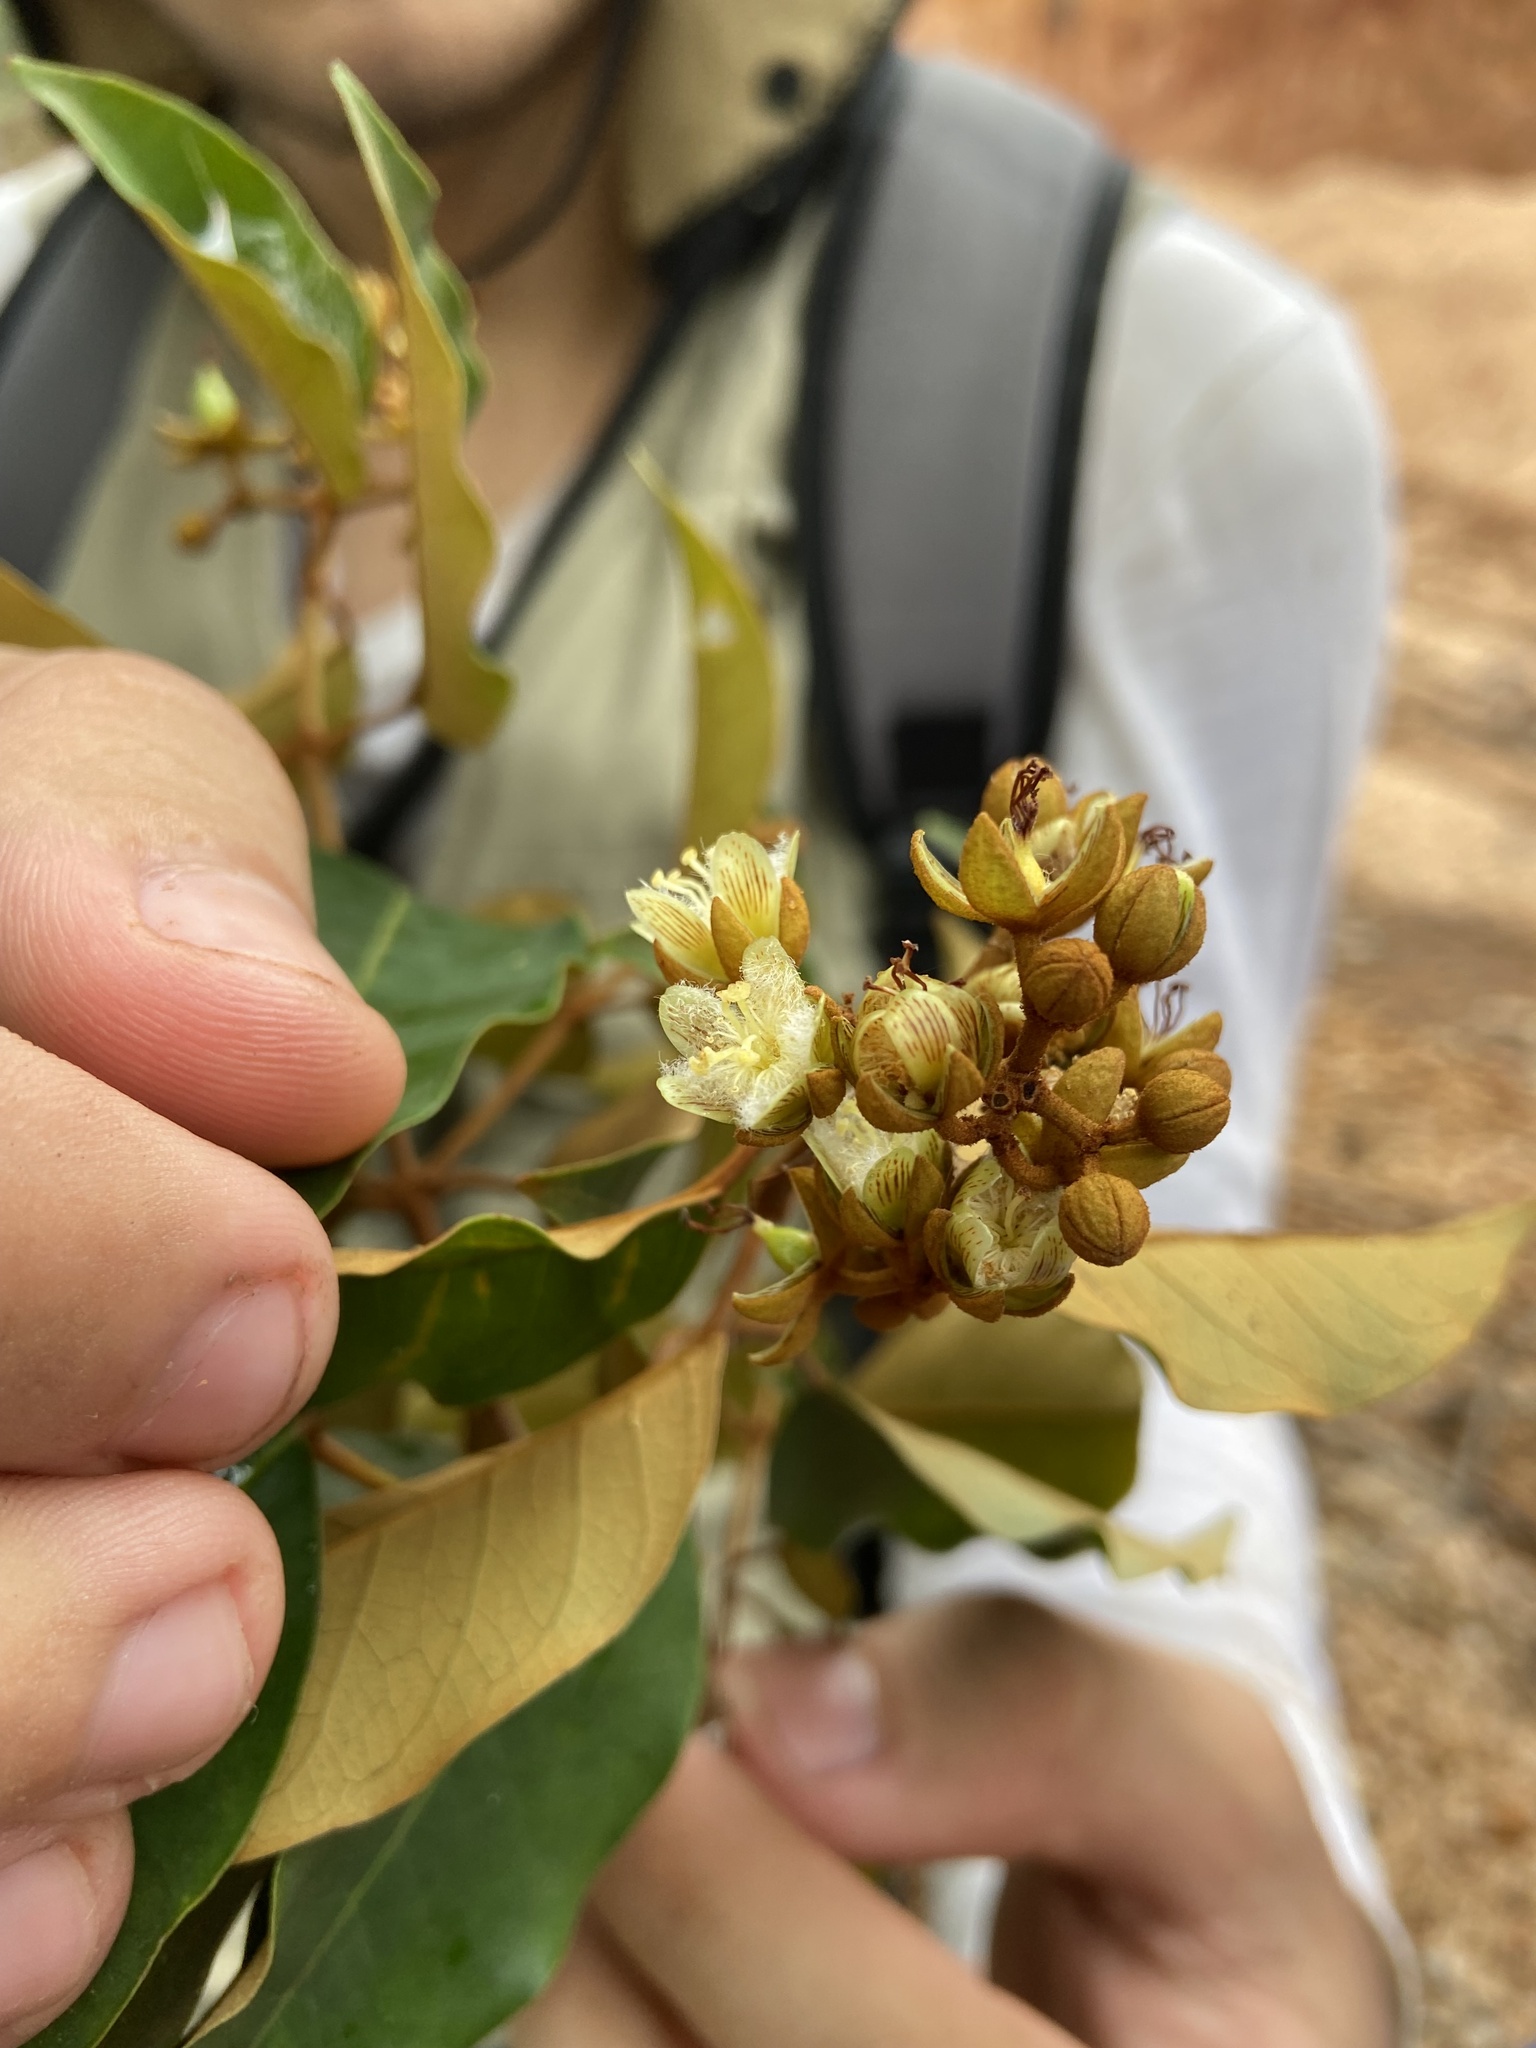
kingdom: Plantae
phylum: Tracheophyta
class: Magnoliopsida
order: Malpighiales
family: Hypericaceae
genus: Vismia
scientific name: Vismia martiana
